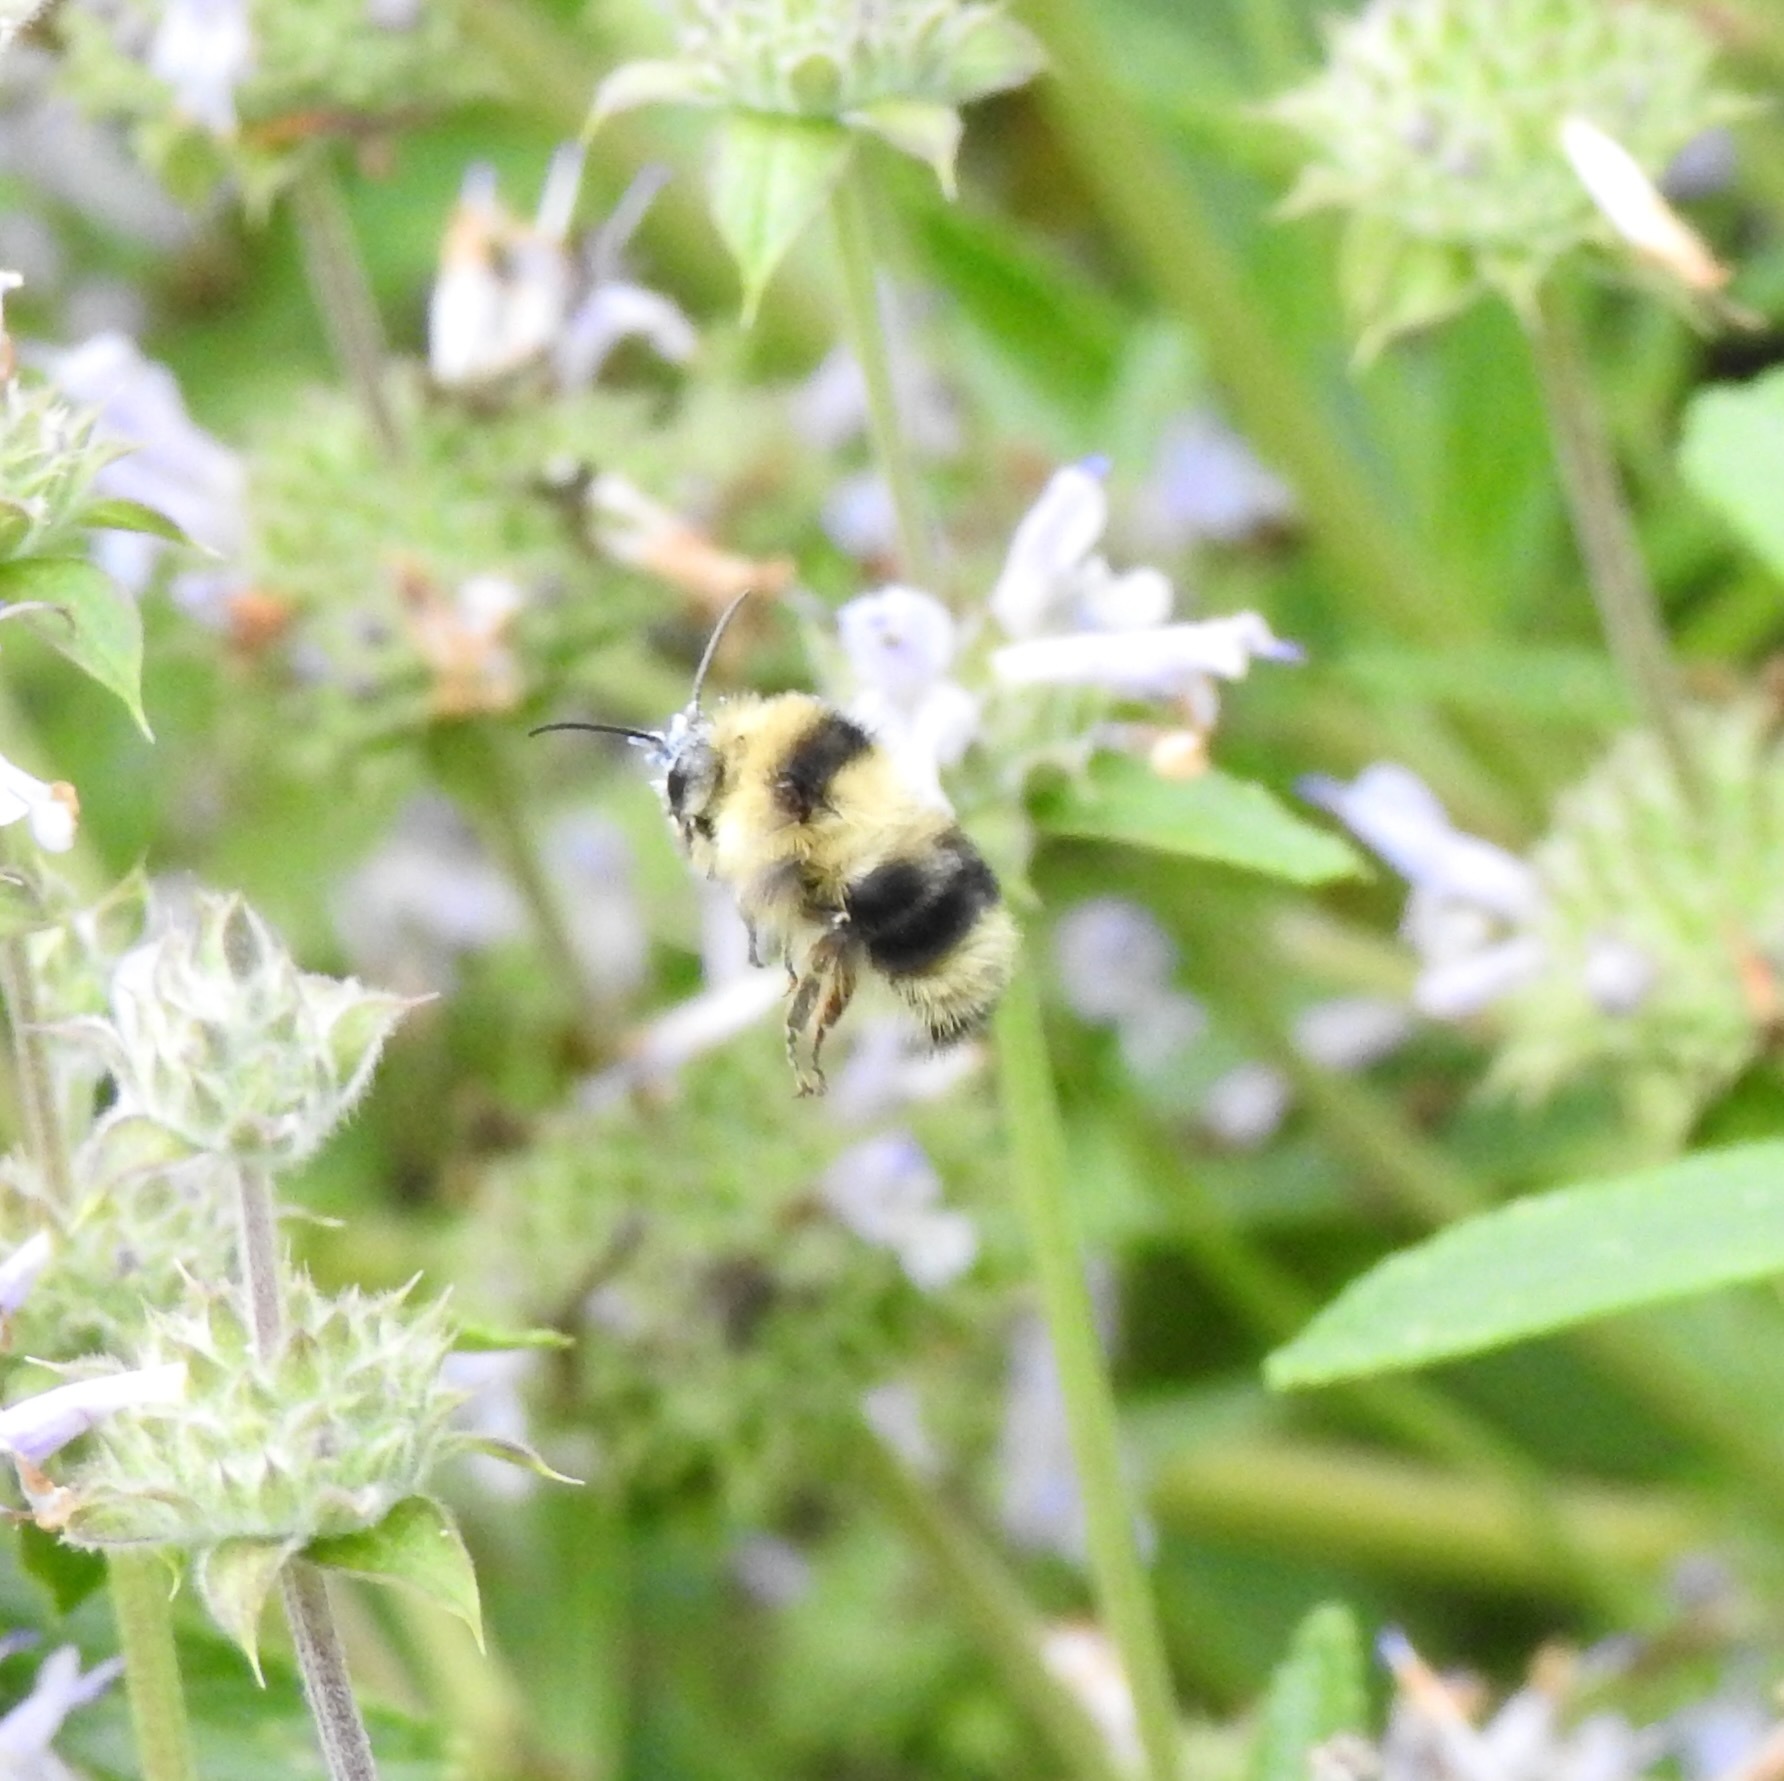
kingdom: Animalia
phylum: Arthropoda
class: Insecta
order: Hymenoptera
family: Apidae
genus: Bombus
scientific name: Bombus melanopygus
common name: Black tail bumble bee
